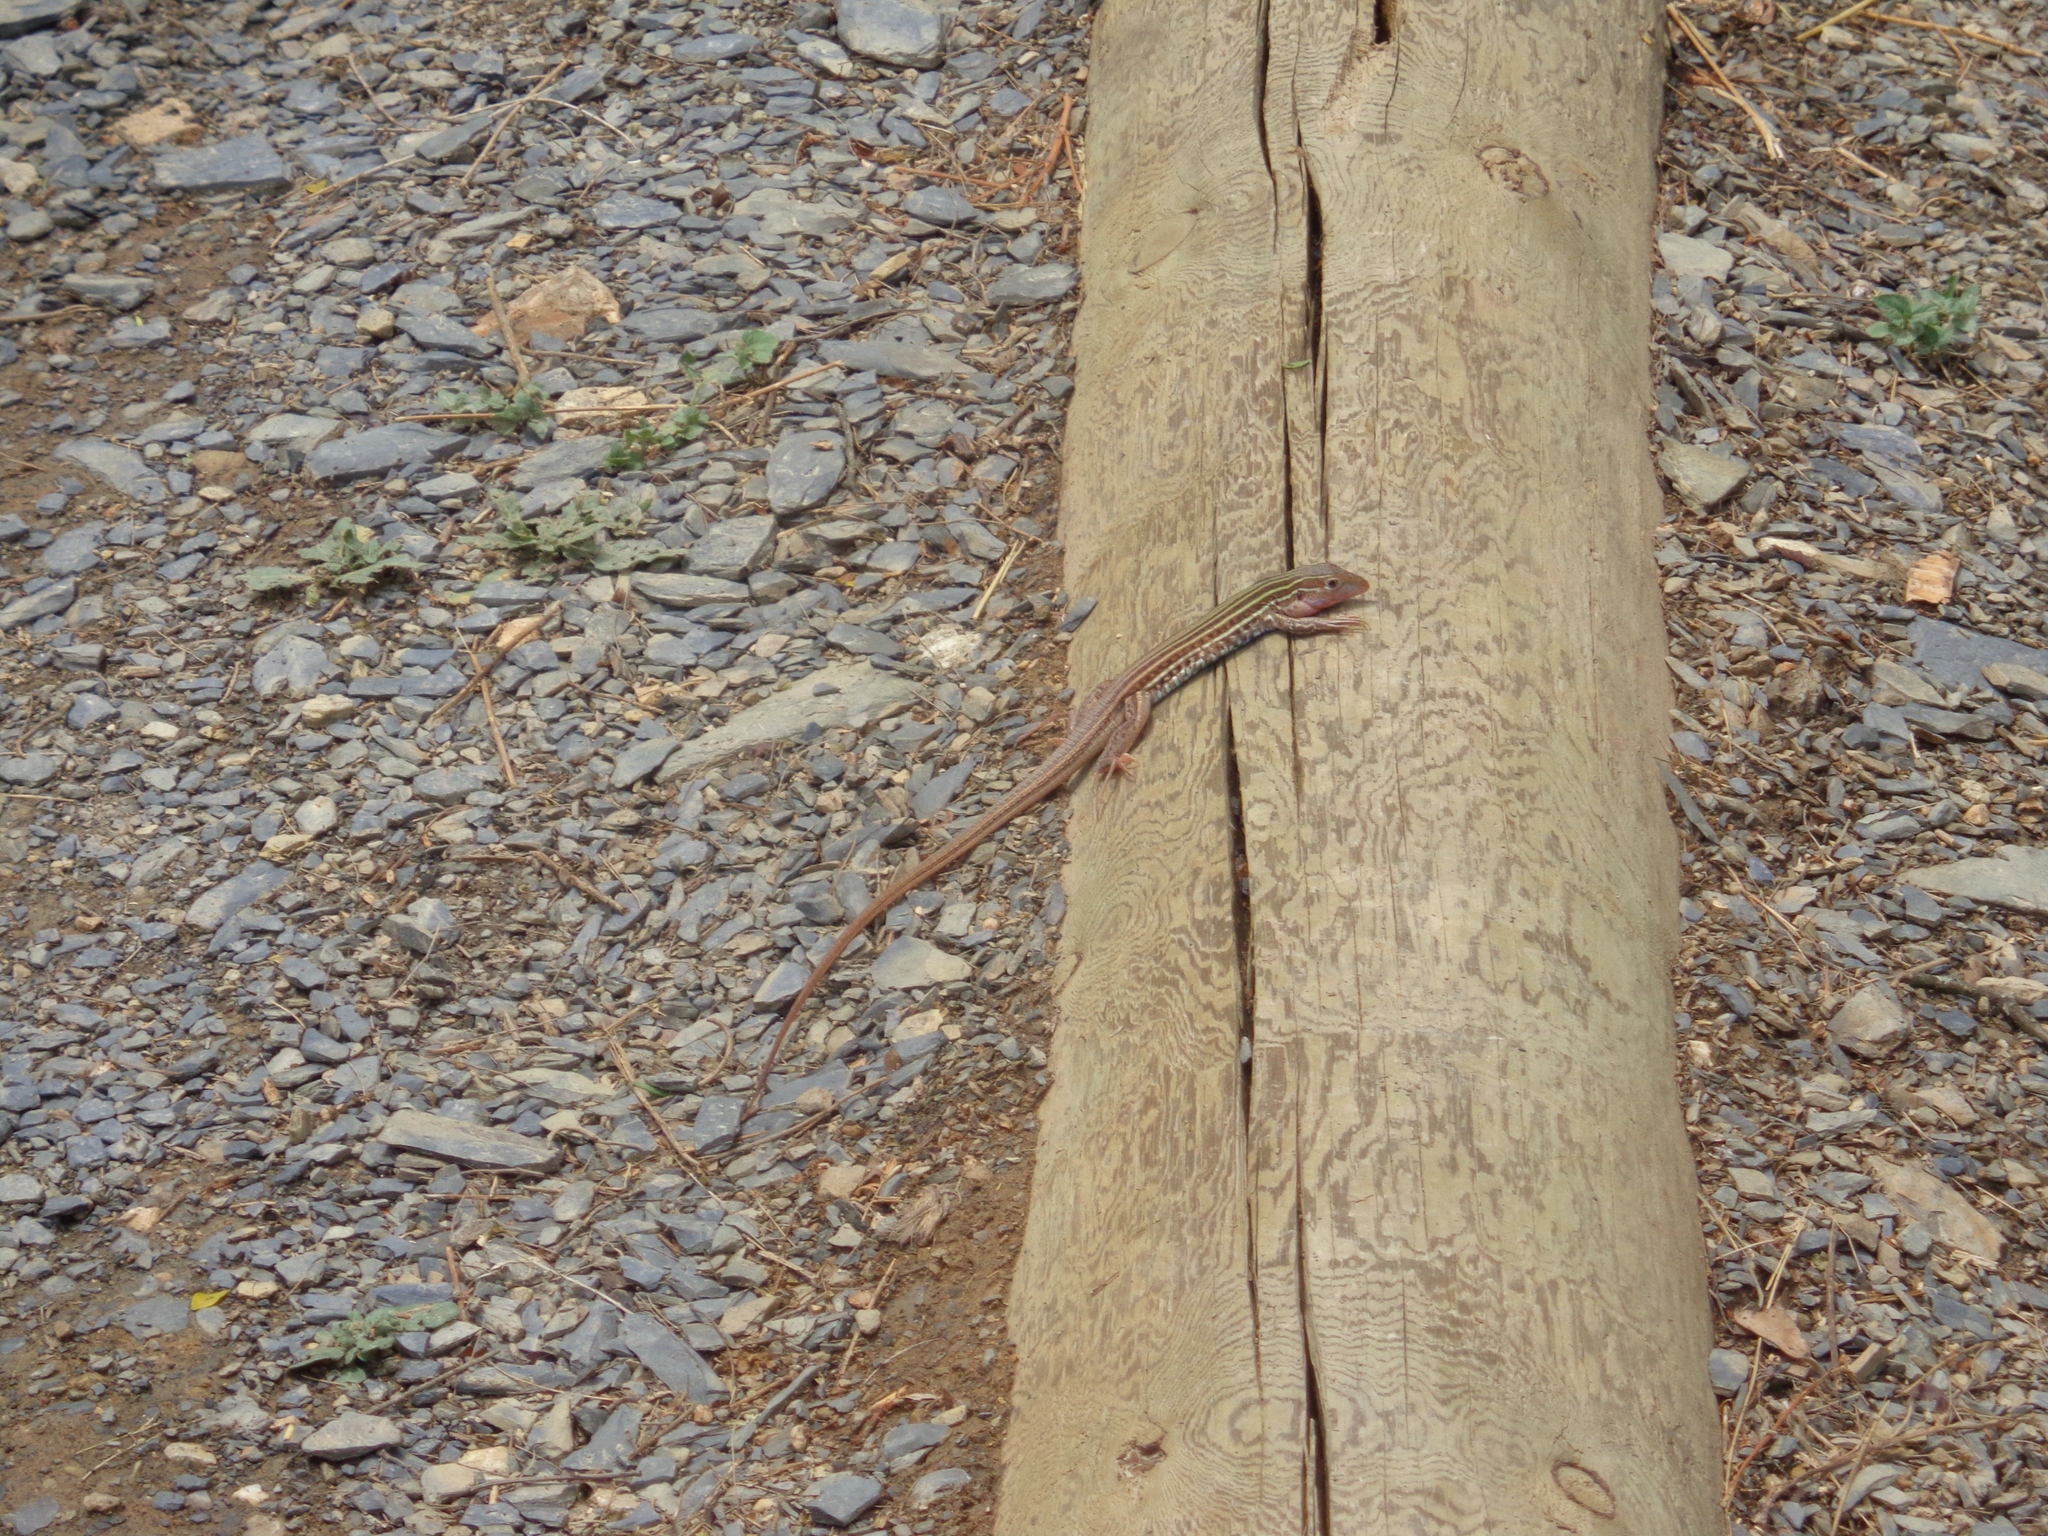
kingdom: Animalia
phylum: Chordata
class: Squamata
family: Teiidae
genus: Aspidoscelis
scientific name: Aspidoscelis gularis
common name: Eastern spotted whiptail
